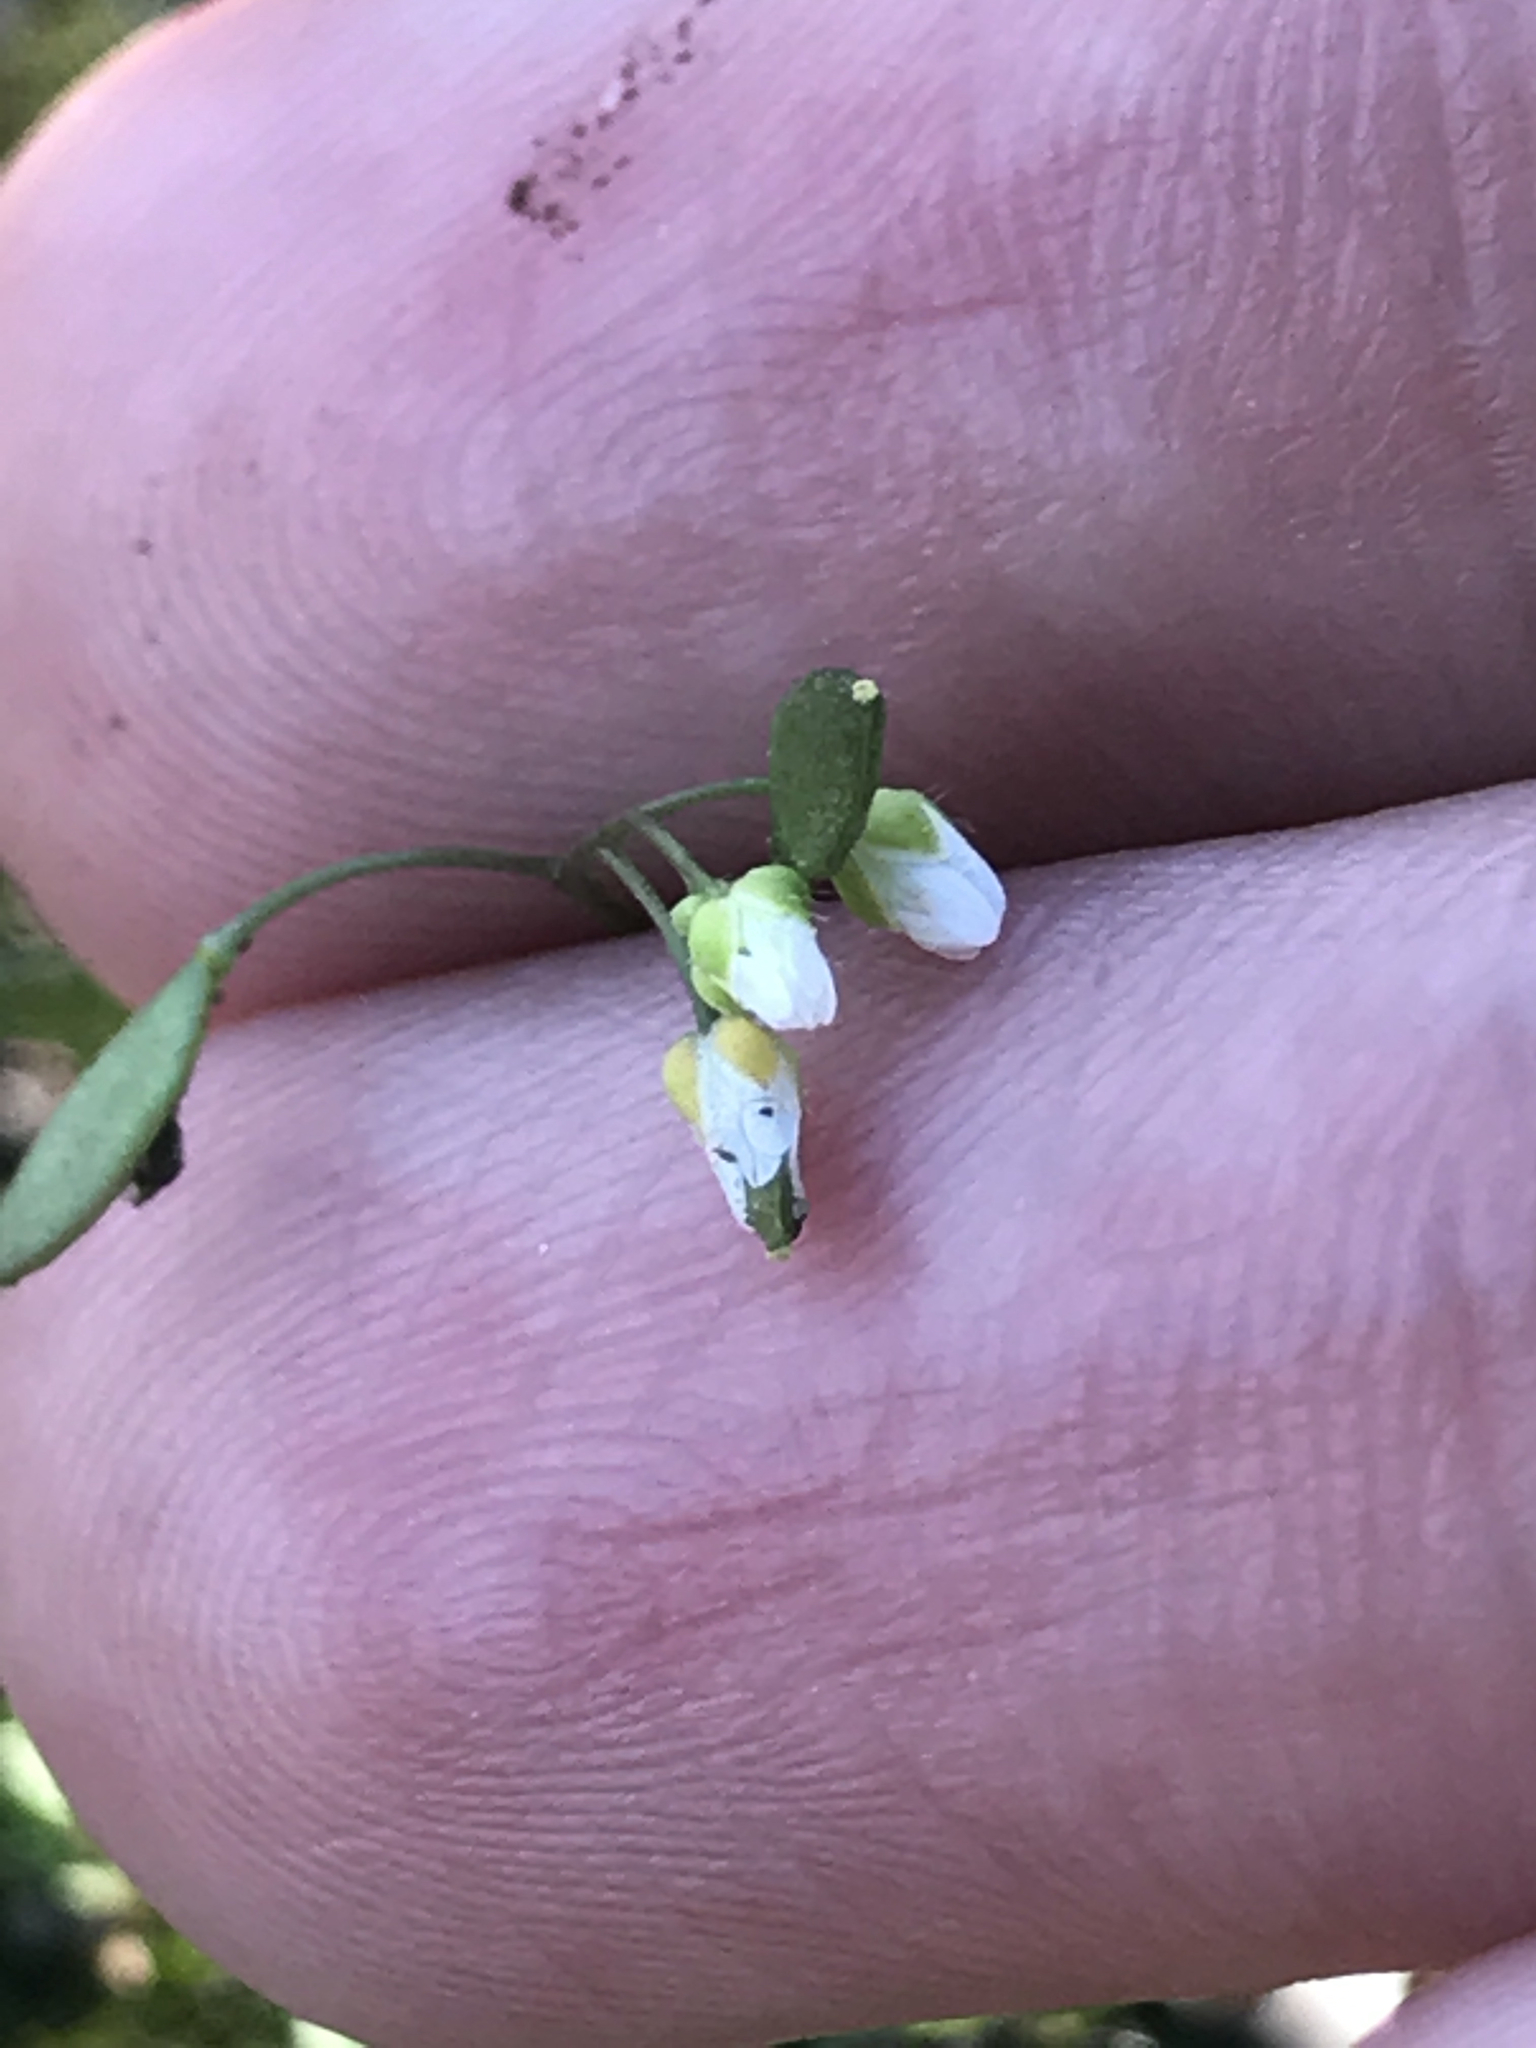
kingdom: Plantae
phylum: Tracheophyta
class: Magnoliopsida
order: Brassicales
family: Brassicaceae
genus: Draba
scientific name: Draba verna
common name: Spring draba
